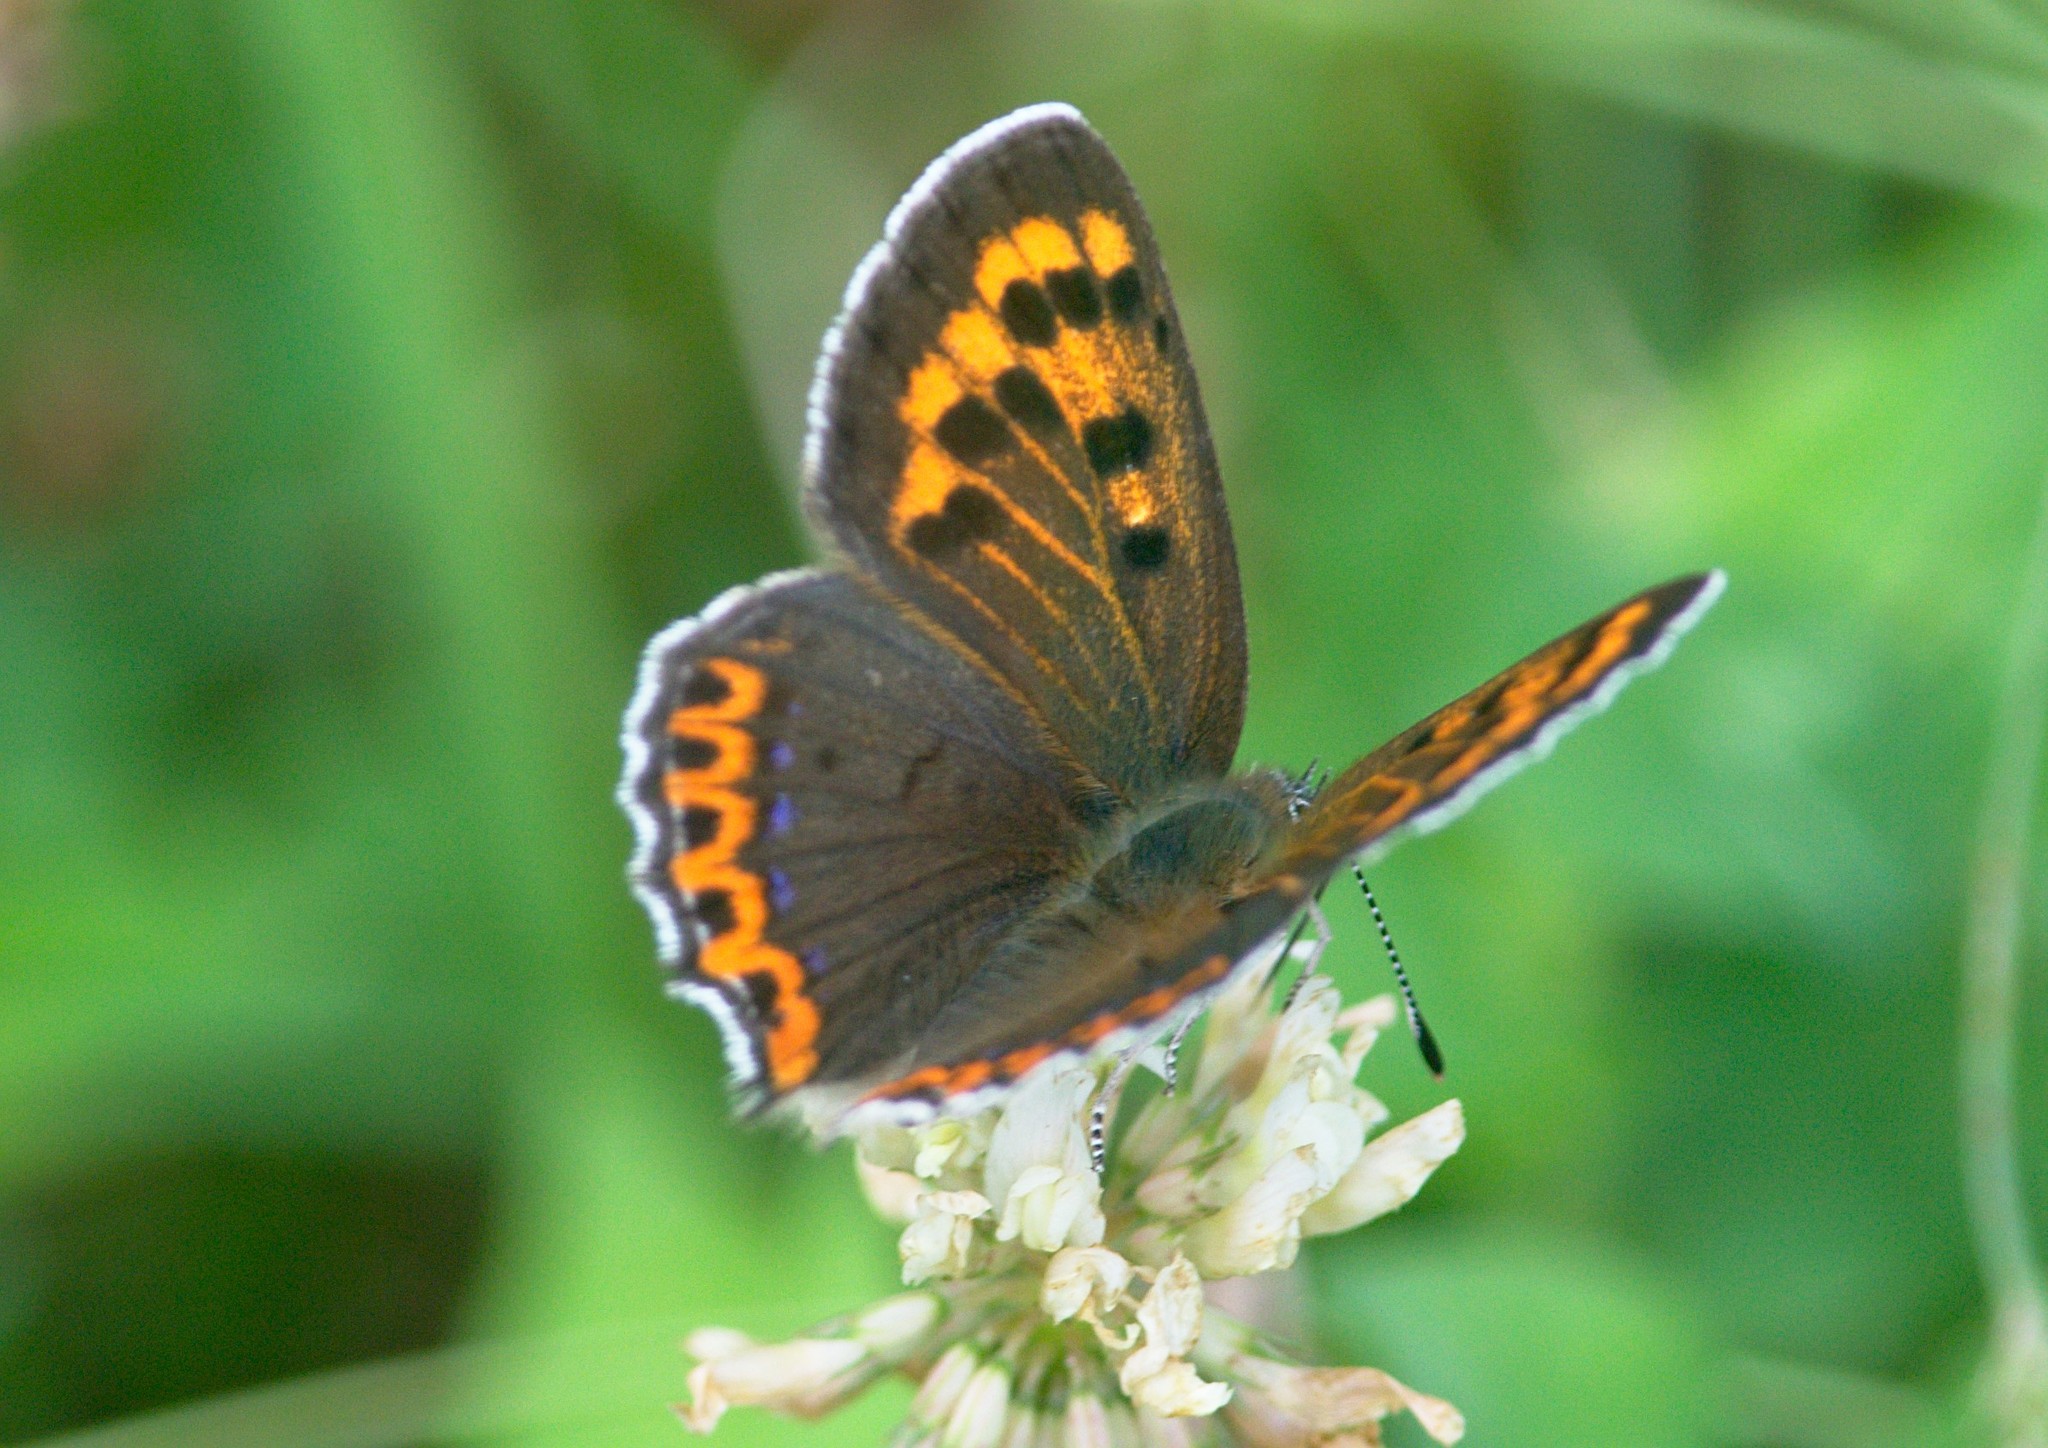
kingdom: Animalia
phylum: Arthropoda
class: Insecta
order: Lepidoptera
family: Lycaenidae
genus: Lycaena
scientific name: Lycaena panava
